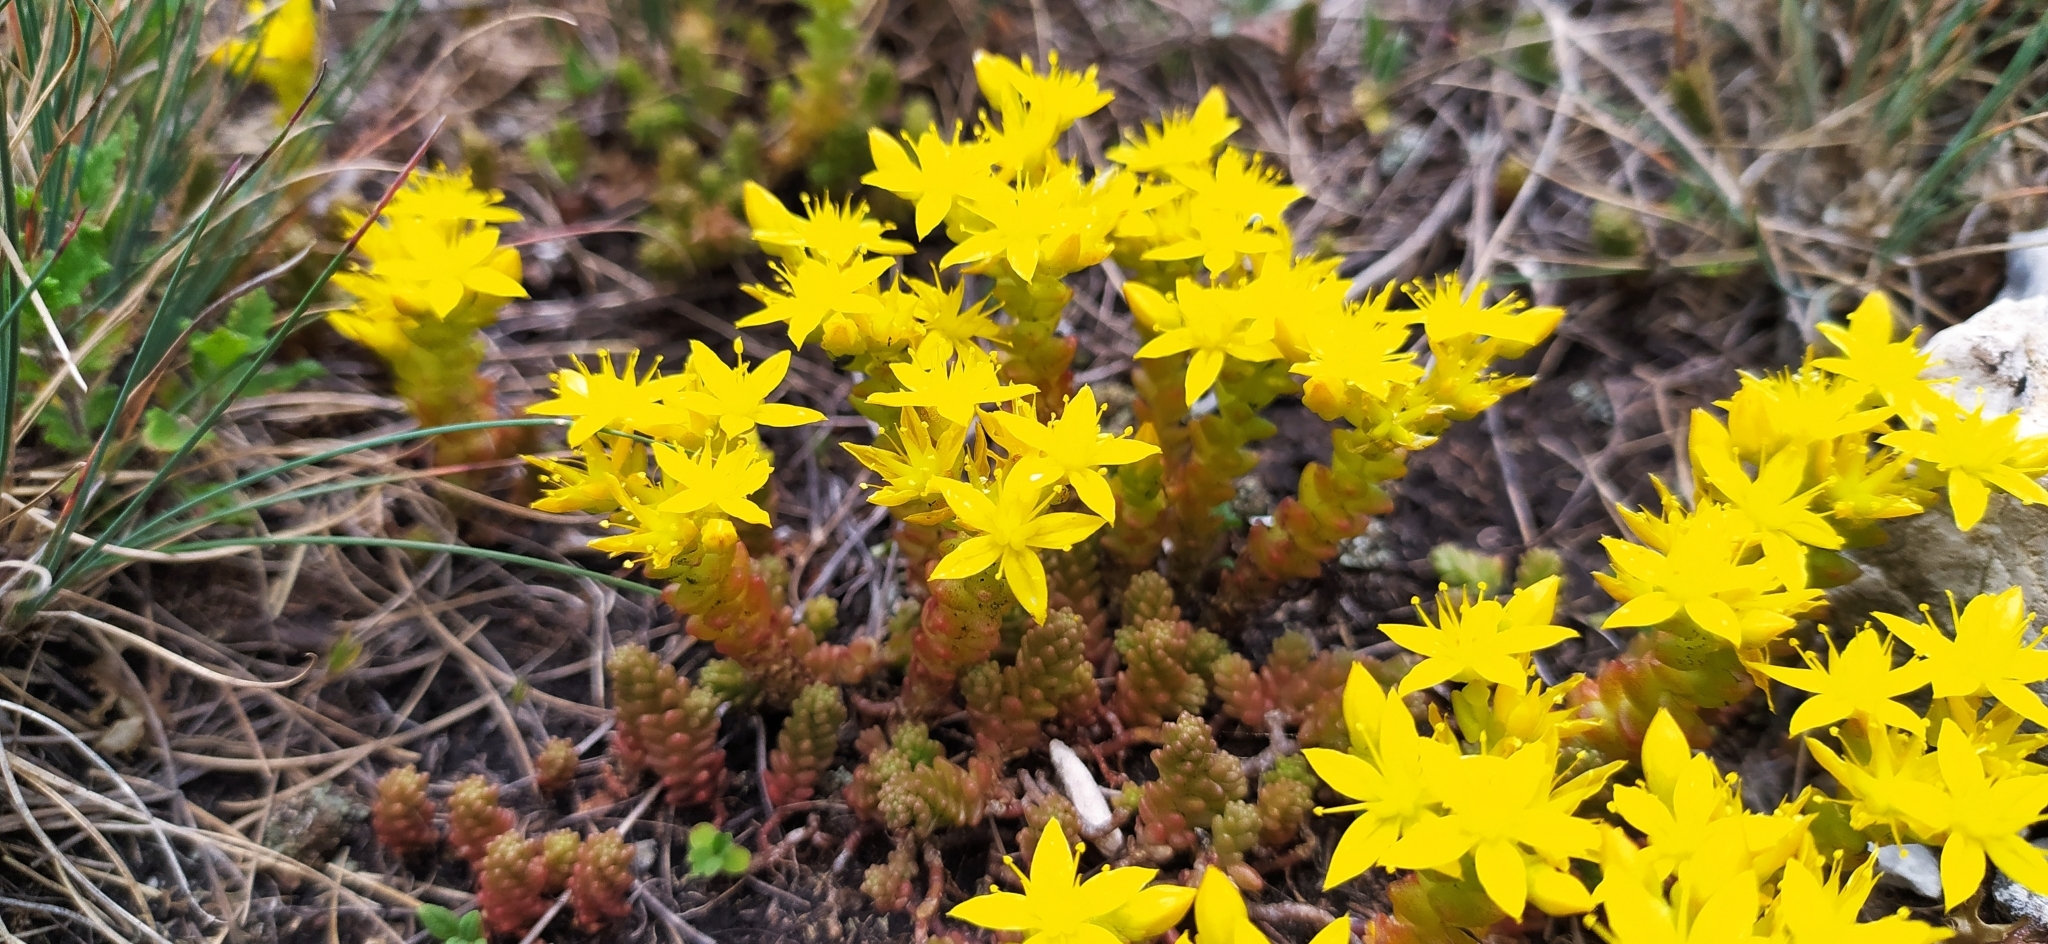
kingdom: Plantae
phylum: Tracheophyta
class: Magnoliopsida
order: Saxifragales
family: Crassulaceae
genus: Sedum
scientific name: Sedum acre
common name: Biting stonecrop
